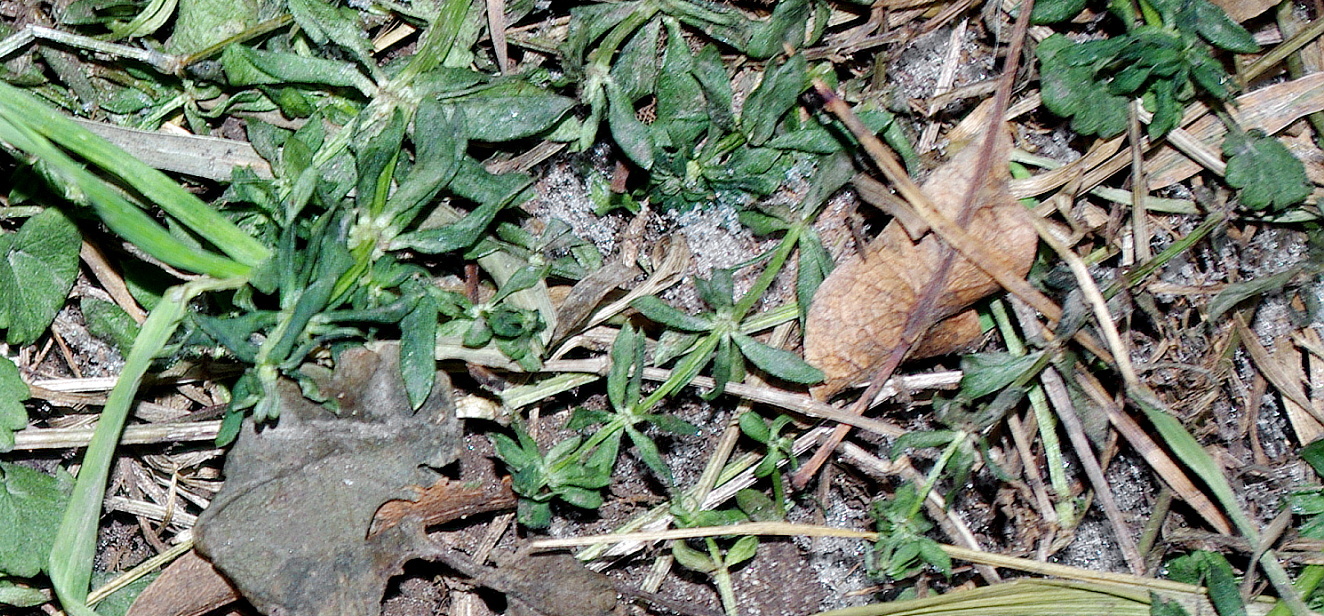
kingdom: Plantae
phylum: Tracheophyta
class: Magnoliopsida
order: Gentianales
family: Rubiaceae
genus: Galium
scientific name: Galium mollugo
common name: Hedge bedstraw
